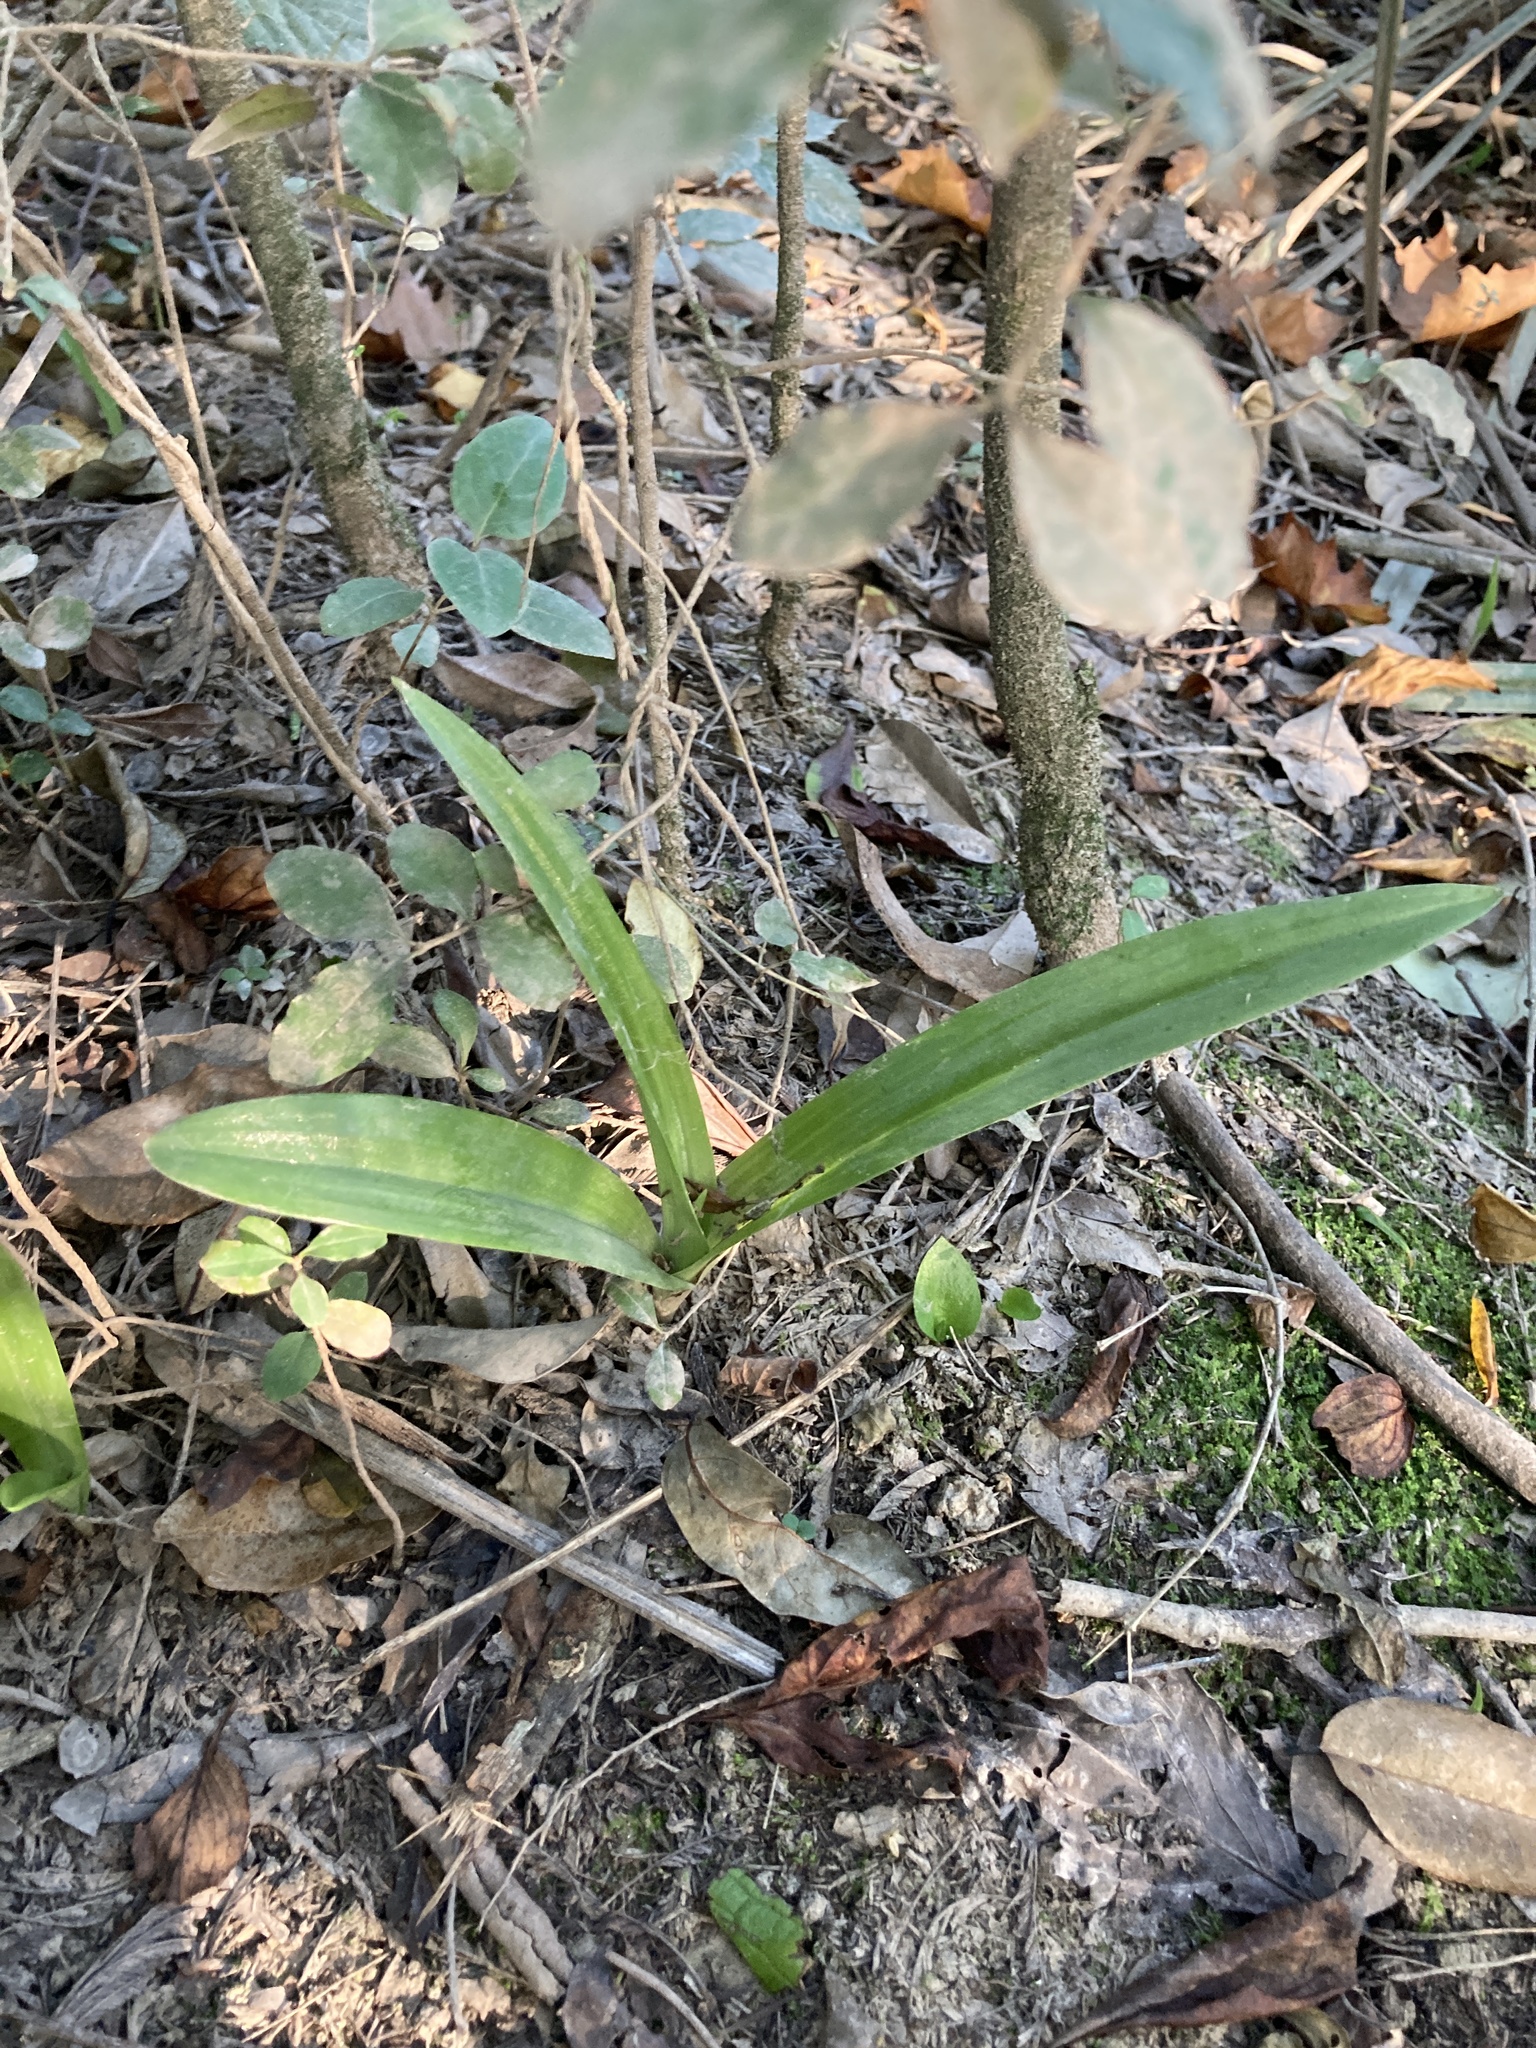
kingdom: Plantae
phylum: Tracheophyta
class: Liliopsida
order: Asparagales
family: Orchidaceae
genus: Chloraea
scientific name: Chloraea membranacea
